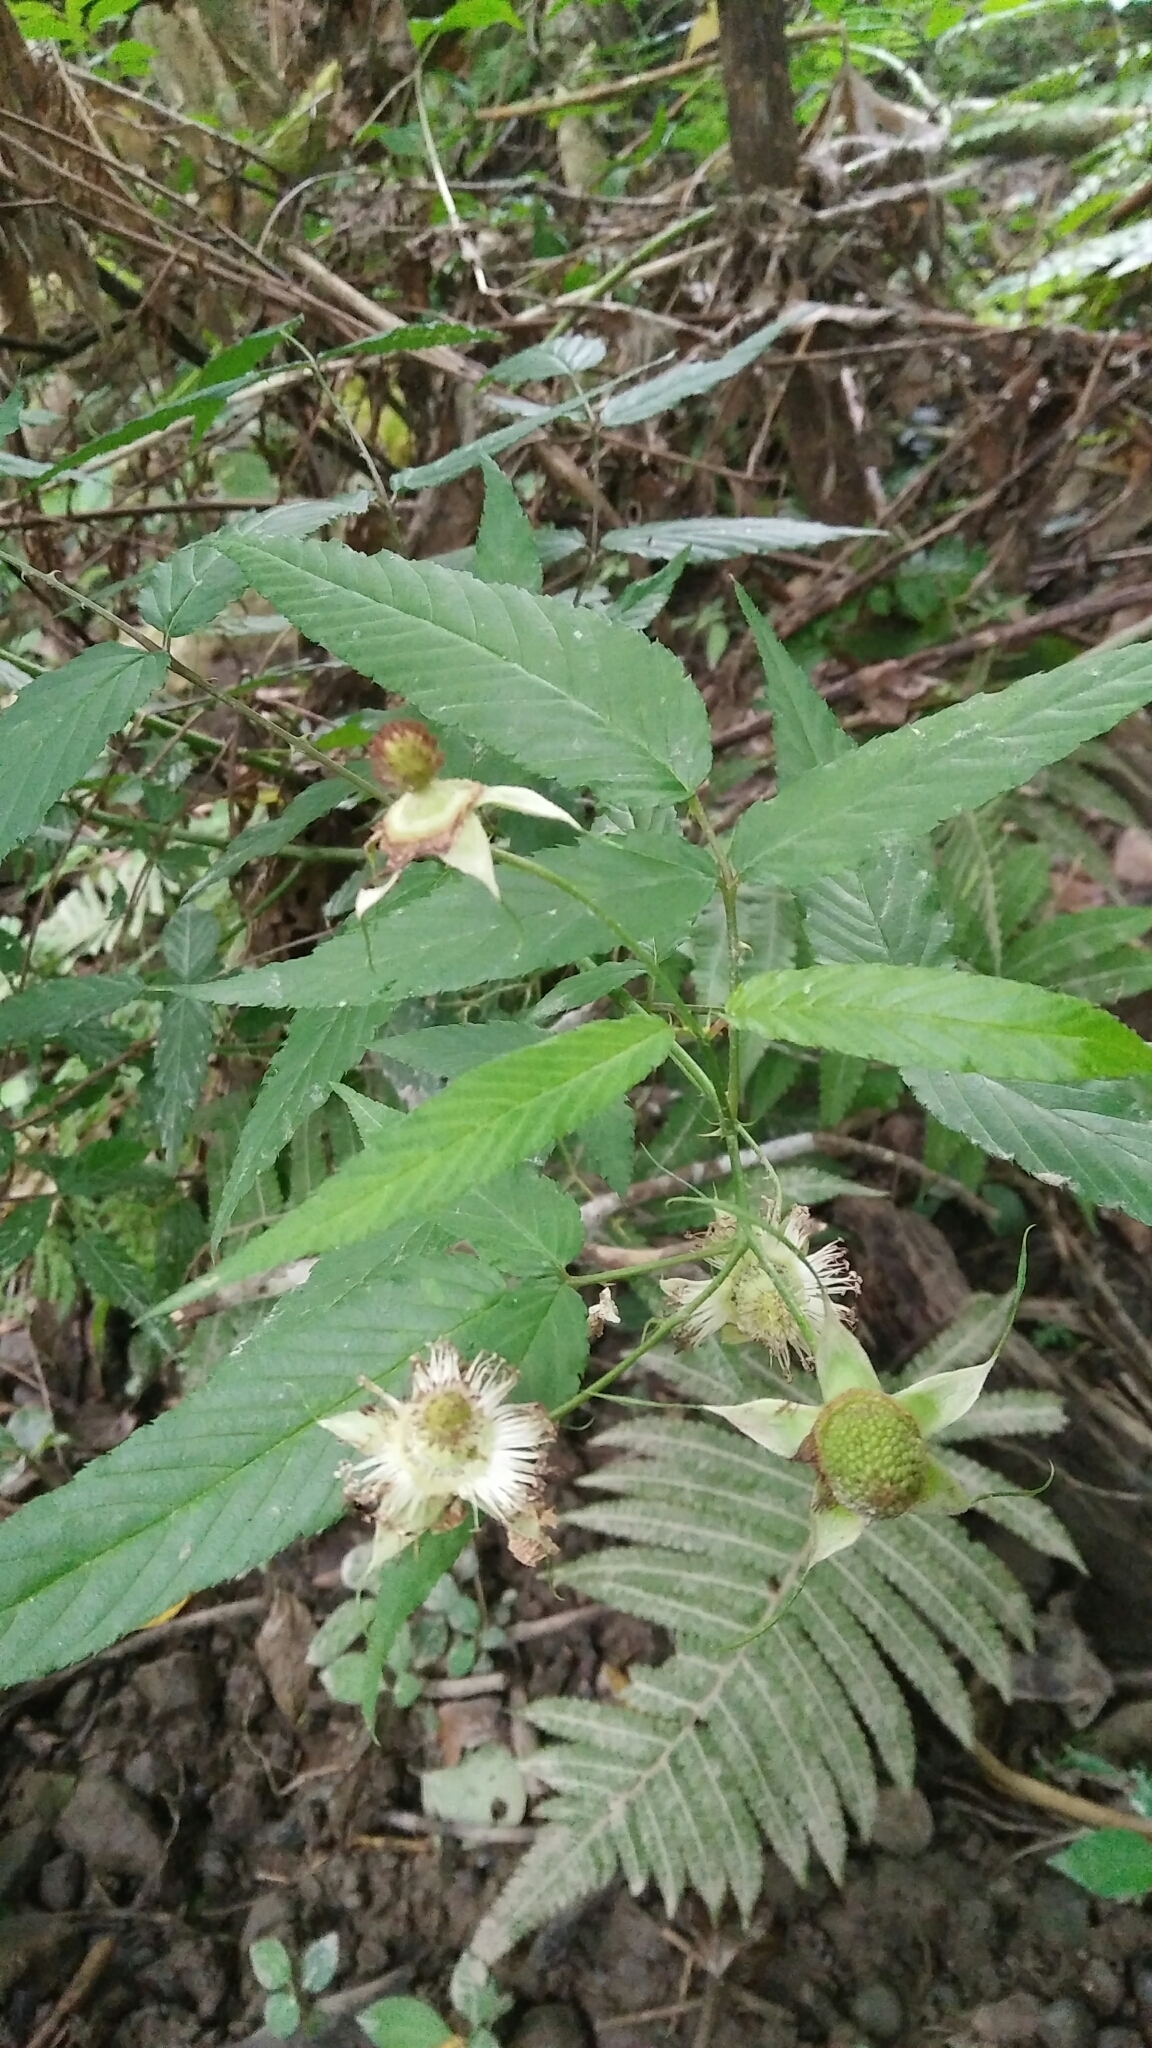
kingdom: Plantae
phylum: Tracheophyta
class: Magnoliopsida
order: Rosales
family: Rosaceae
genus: Rubus
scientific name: Rubus linearifoliolus
